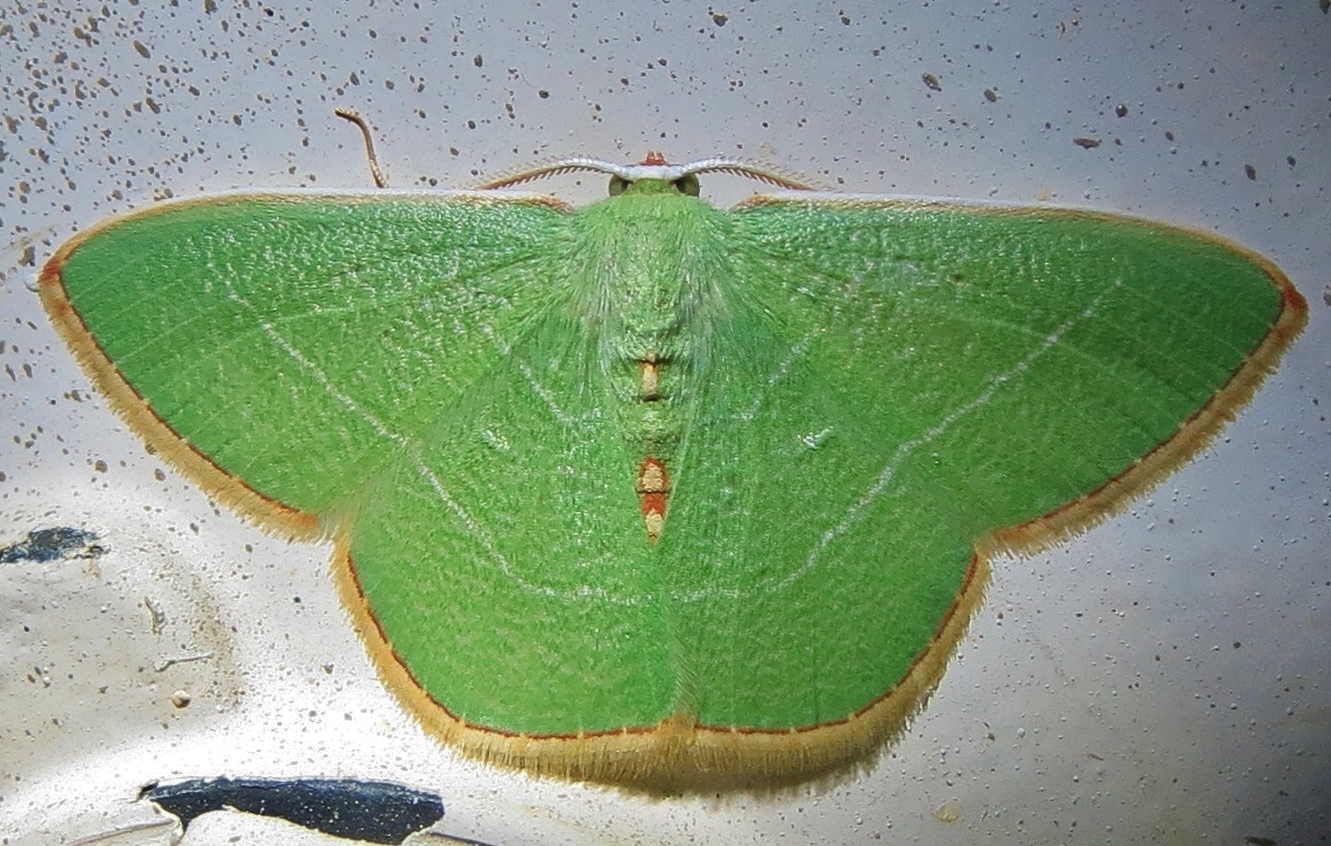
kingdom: Animalia
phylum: Arthropoda
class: Insecta
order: Lepidoptera
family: Geometridae
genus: Nemoria
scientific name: Nemoria bistriaria
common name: Red-fringed emerald
